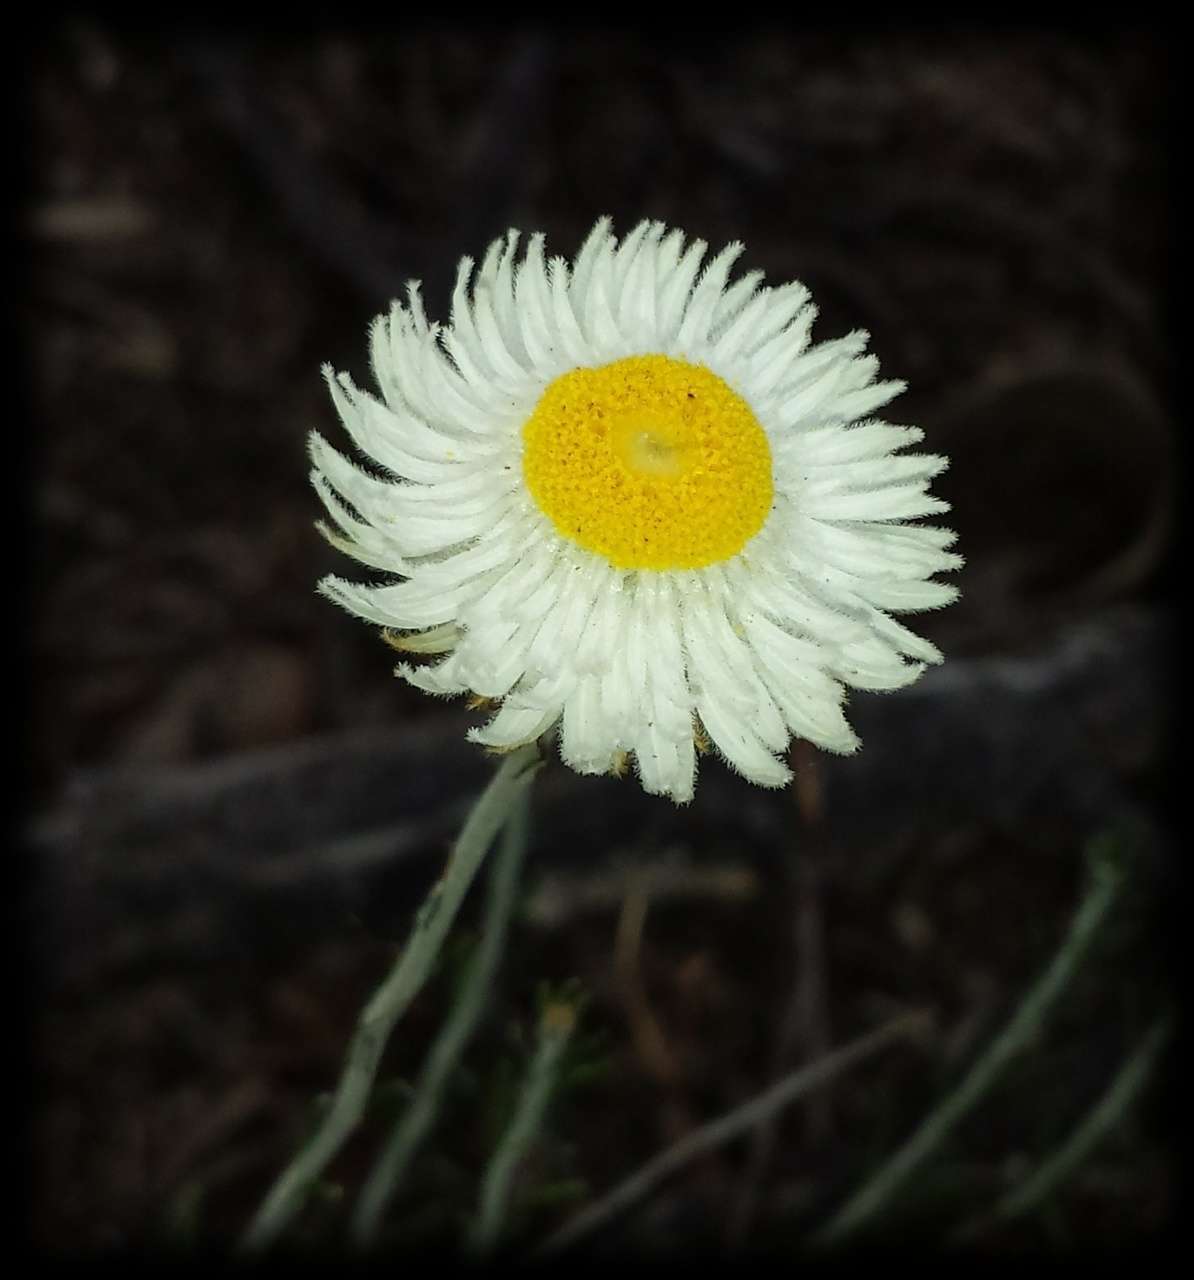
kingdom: Plantae
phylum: Tracheophyta
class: Magnoliopsida
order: Asterales
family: Asteraceae
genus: Chrysocephalum
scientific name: Chrysocephalum baxteri
